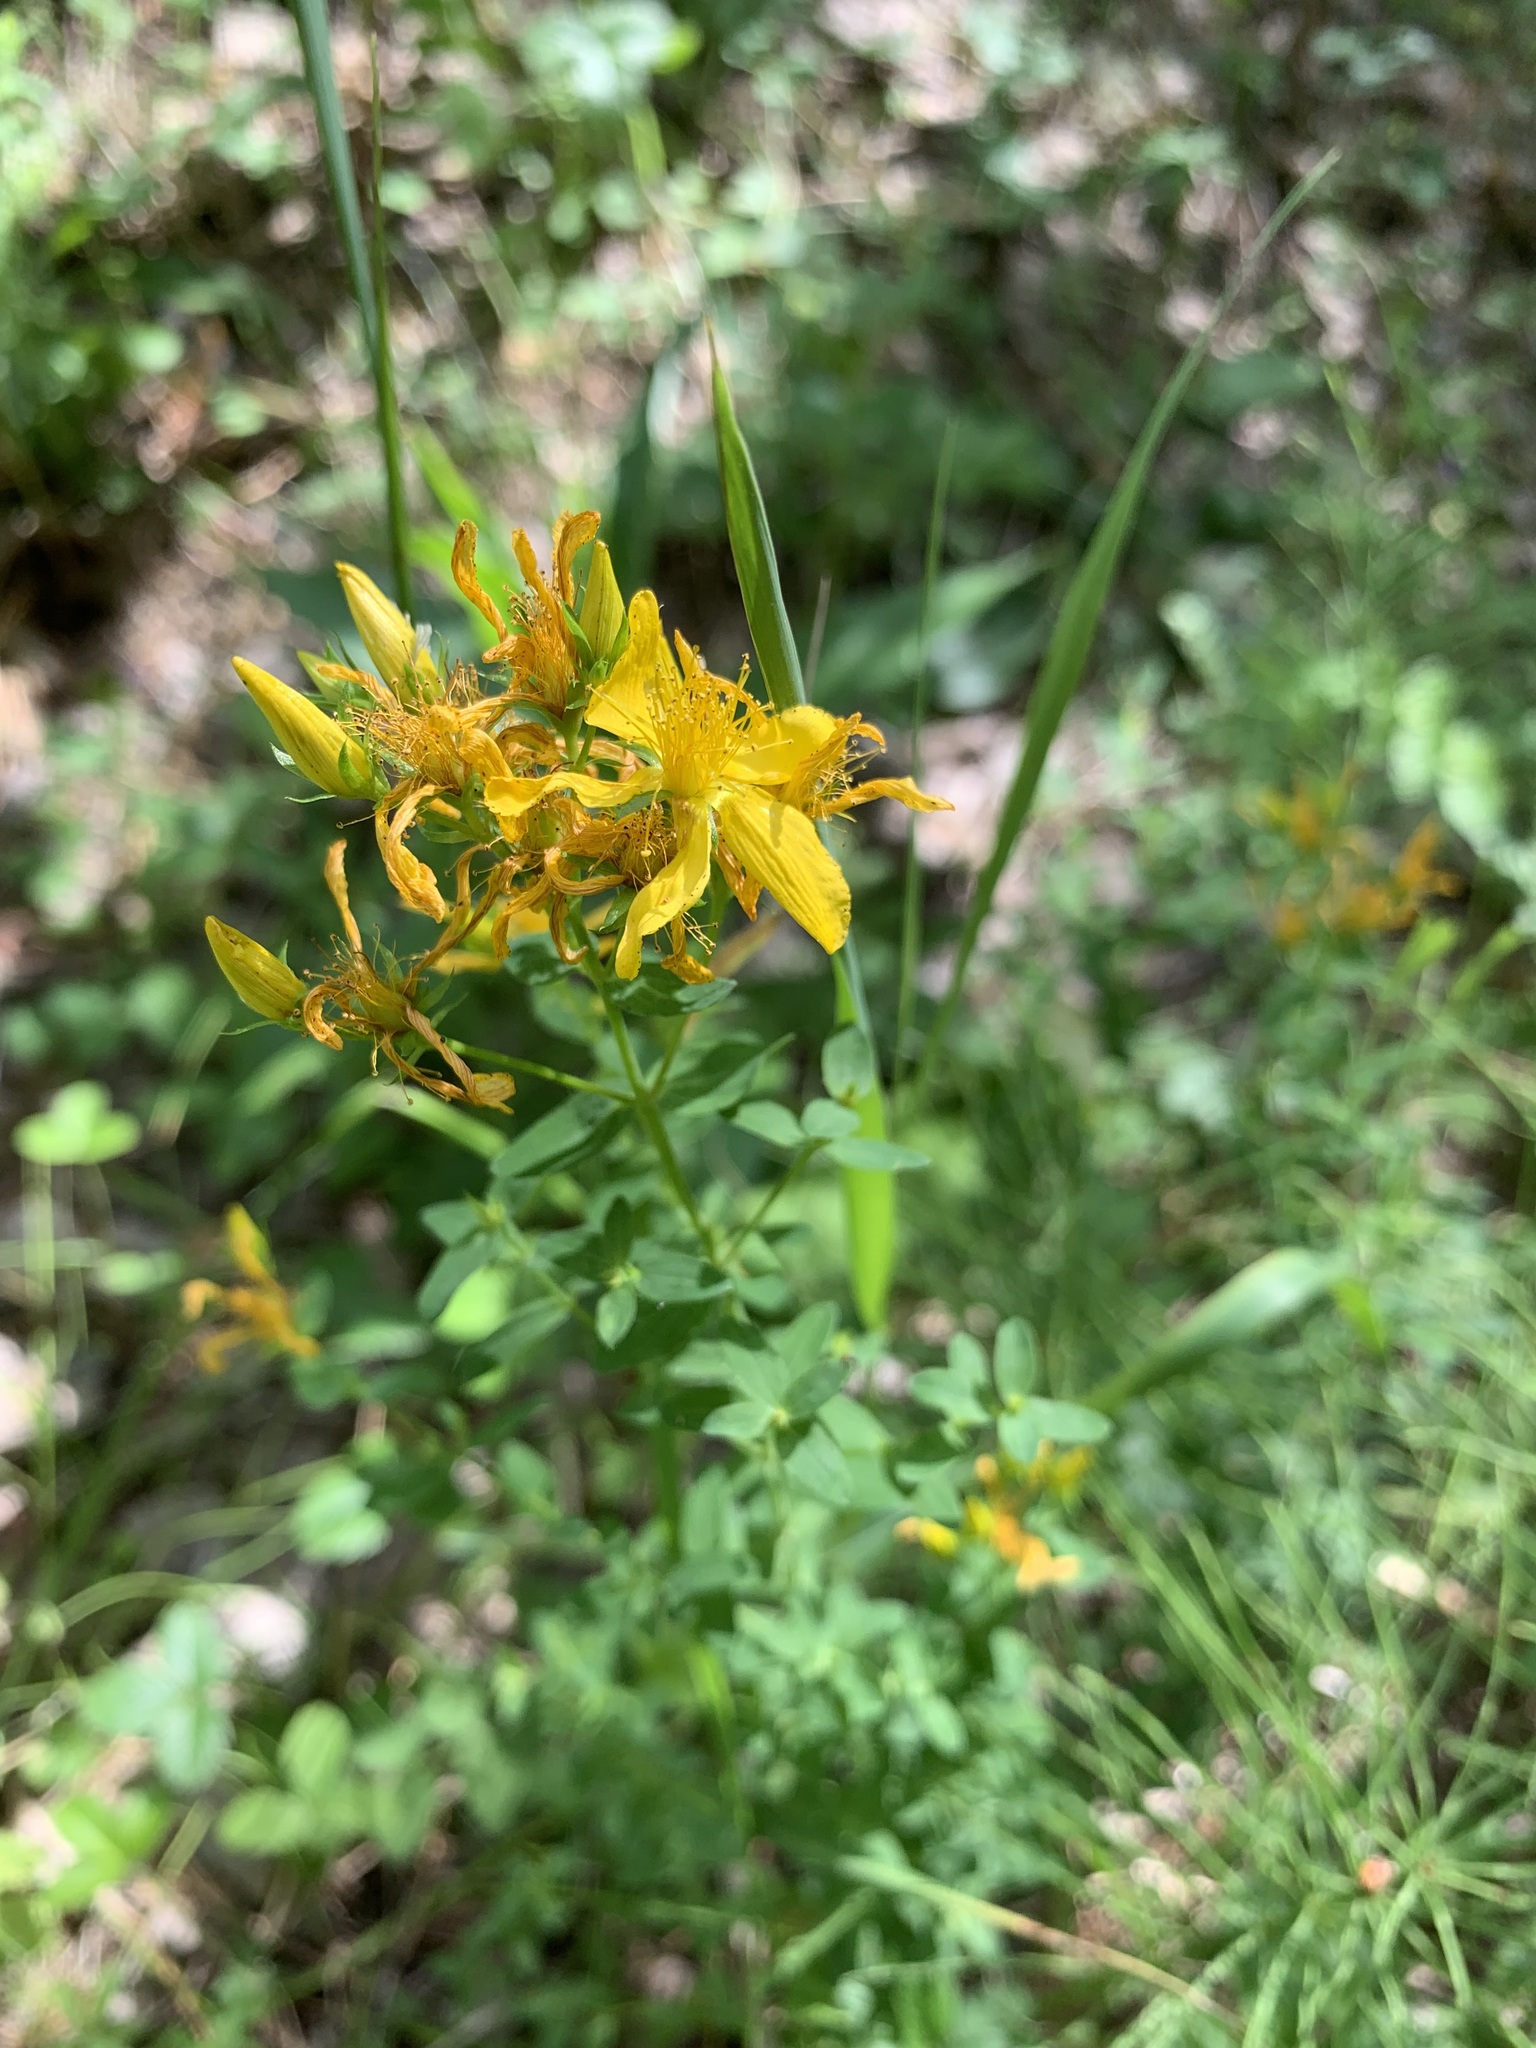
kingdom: Plantae
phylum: Tracheophyta
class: Magnoliopsida
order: Malpighiales
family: Hypericaceae
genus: Hypericum
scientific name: Hypericum perforatum
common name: Common st. johnswort
